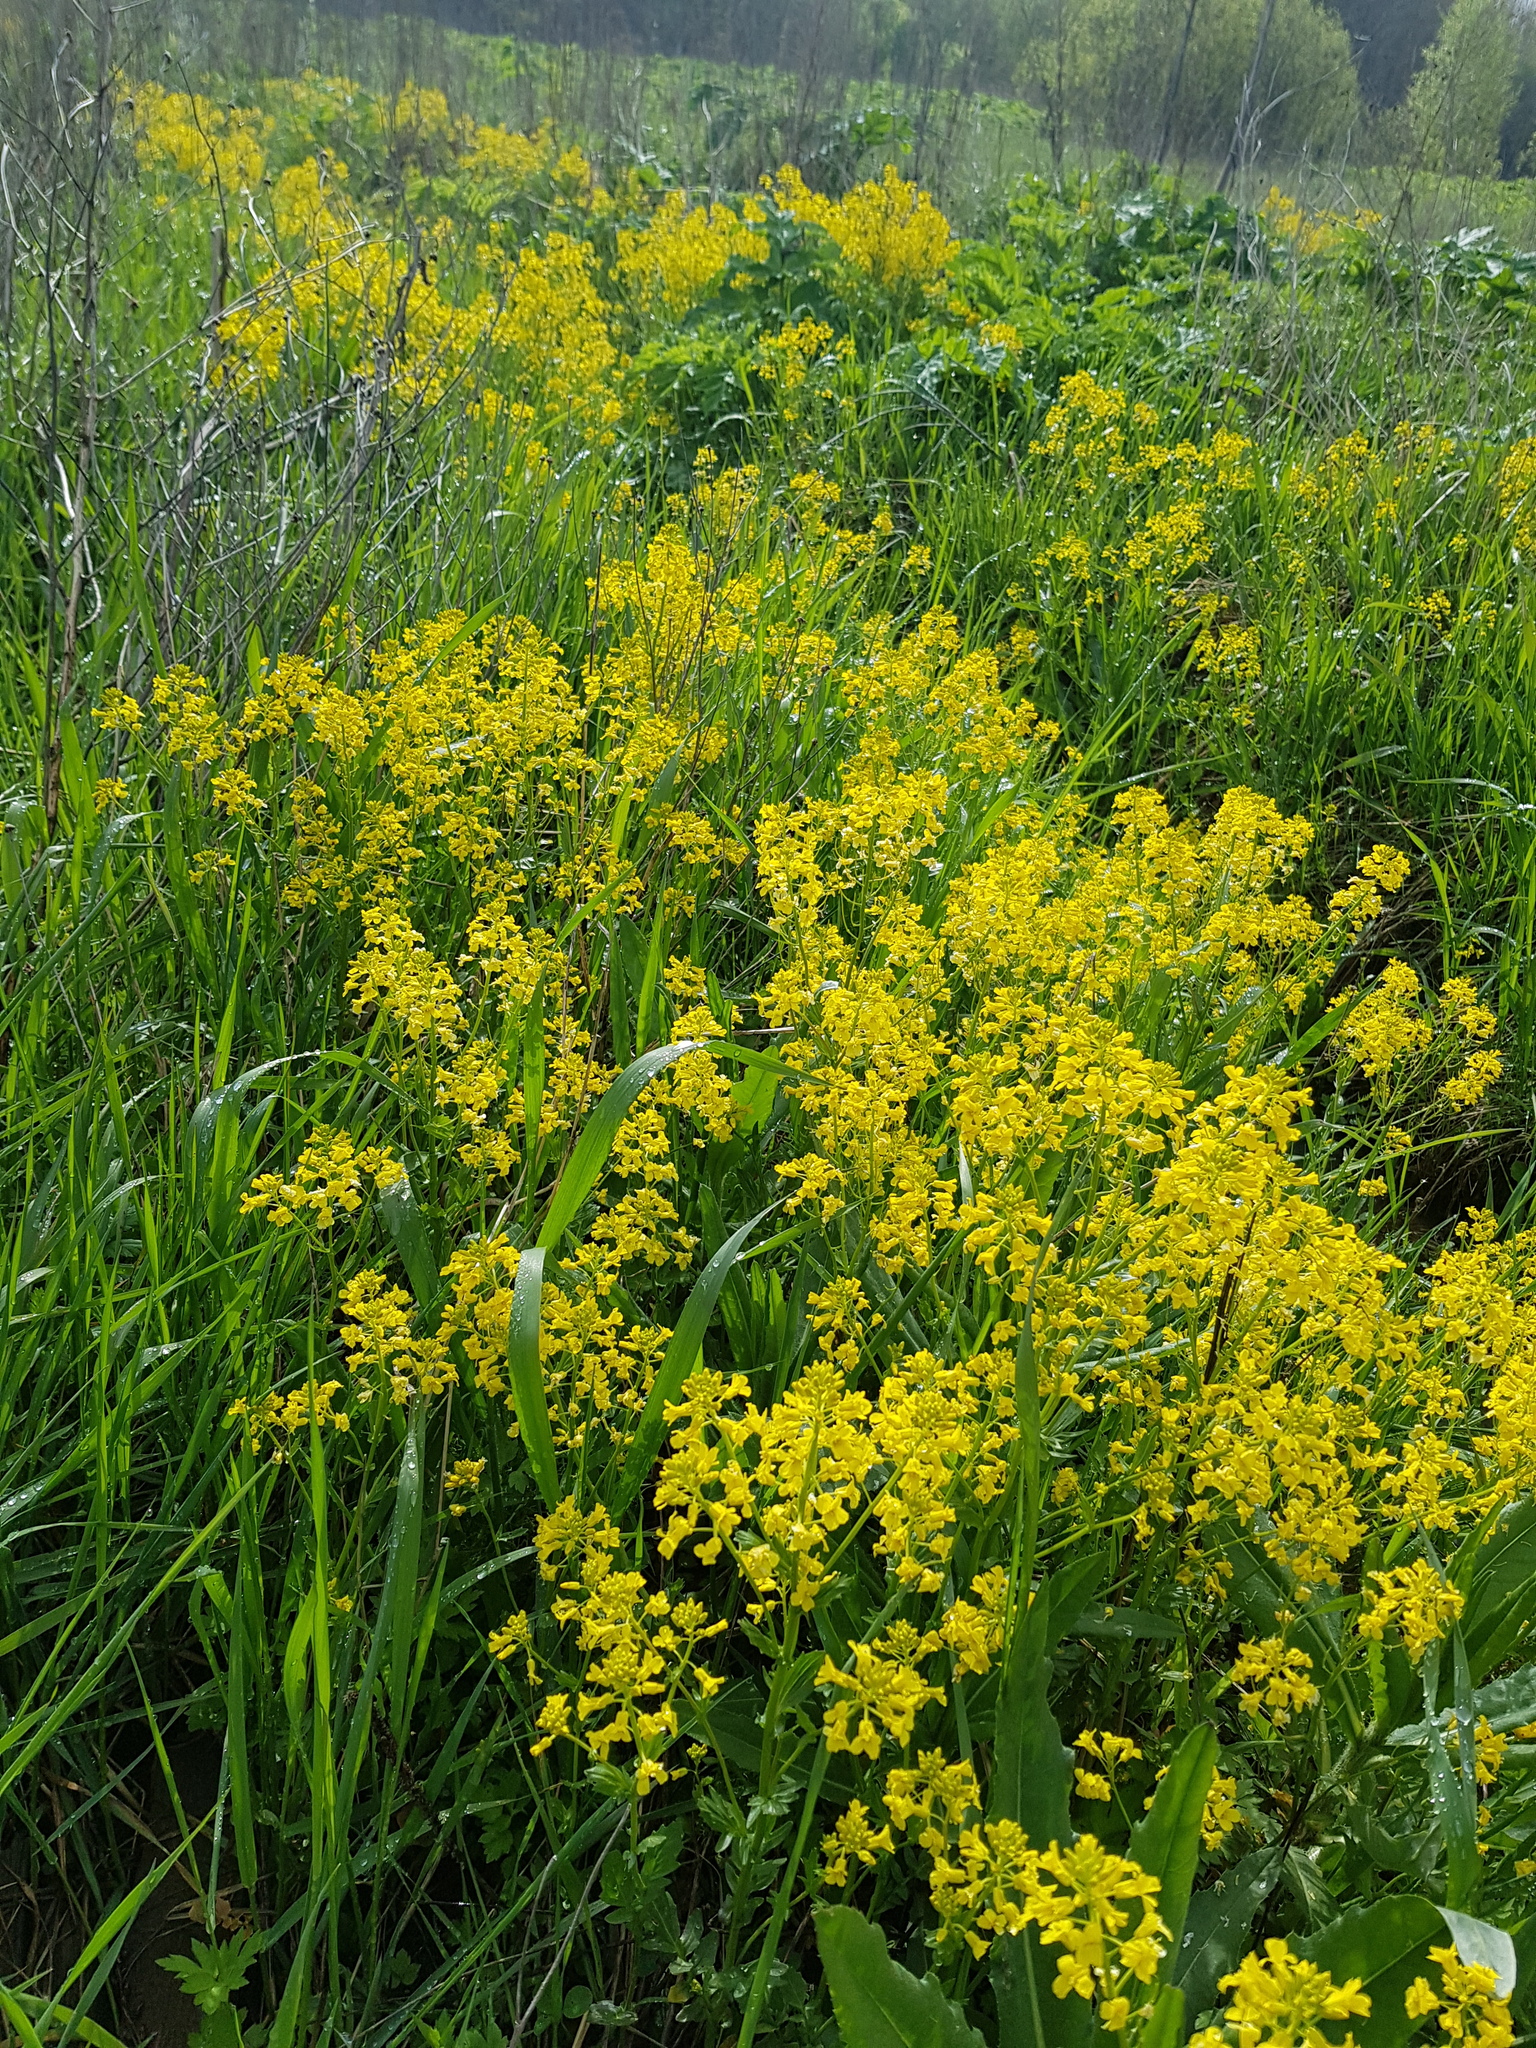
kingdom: Plantae
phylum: Tracheophyta
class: Magnoliopsida
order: Brassicales
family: Brassicaceae
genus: Barbarea
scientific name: Barbarea vulgaris
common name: Cressy-greens
